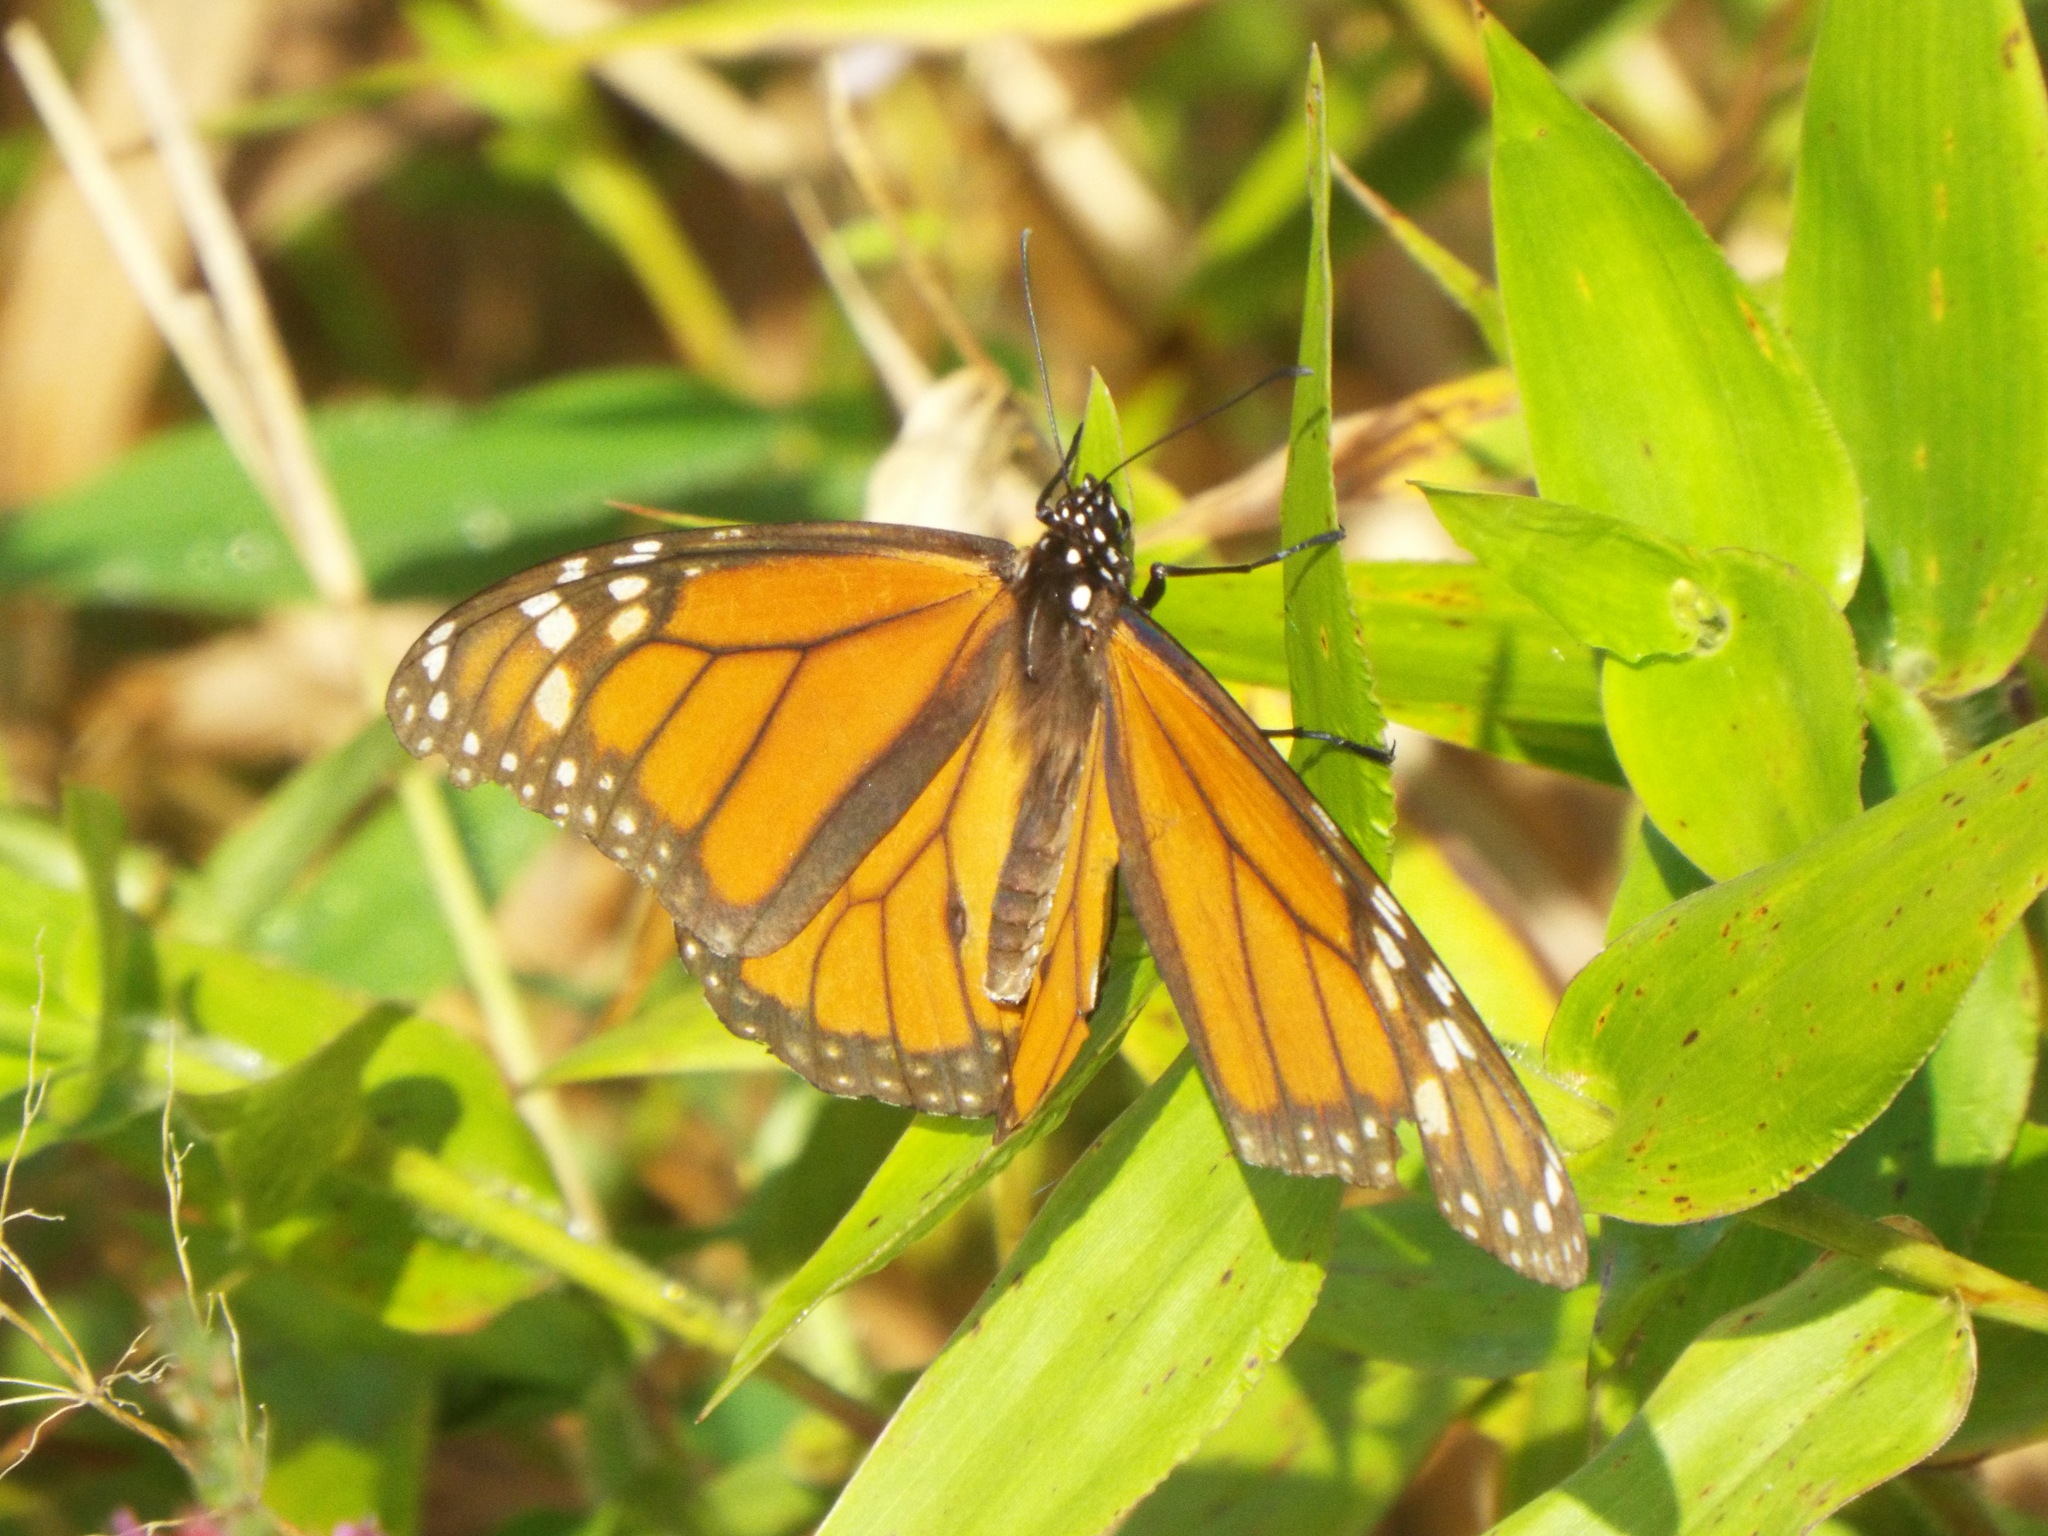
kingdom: Animalia
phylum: Arthropoda
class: Insecta
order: Lepidoptera
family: Nymphalidae
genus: Danaus
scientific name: Danaus plexippus
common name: Monarch
